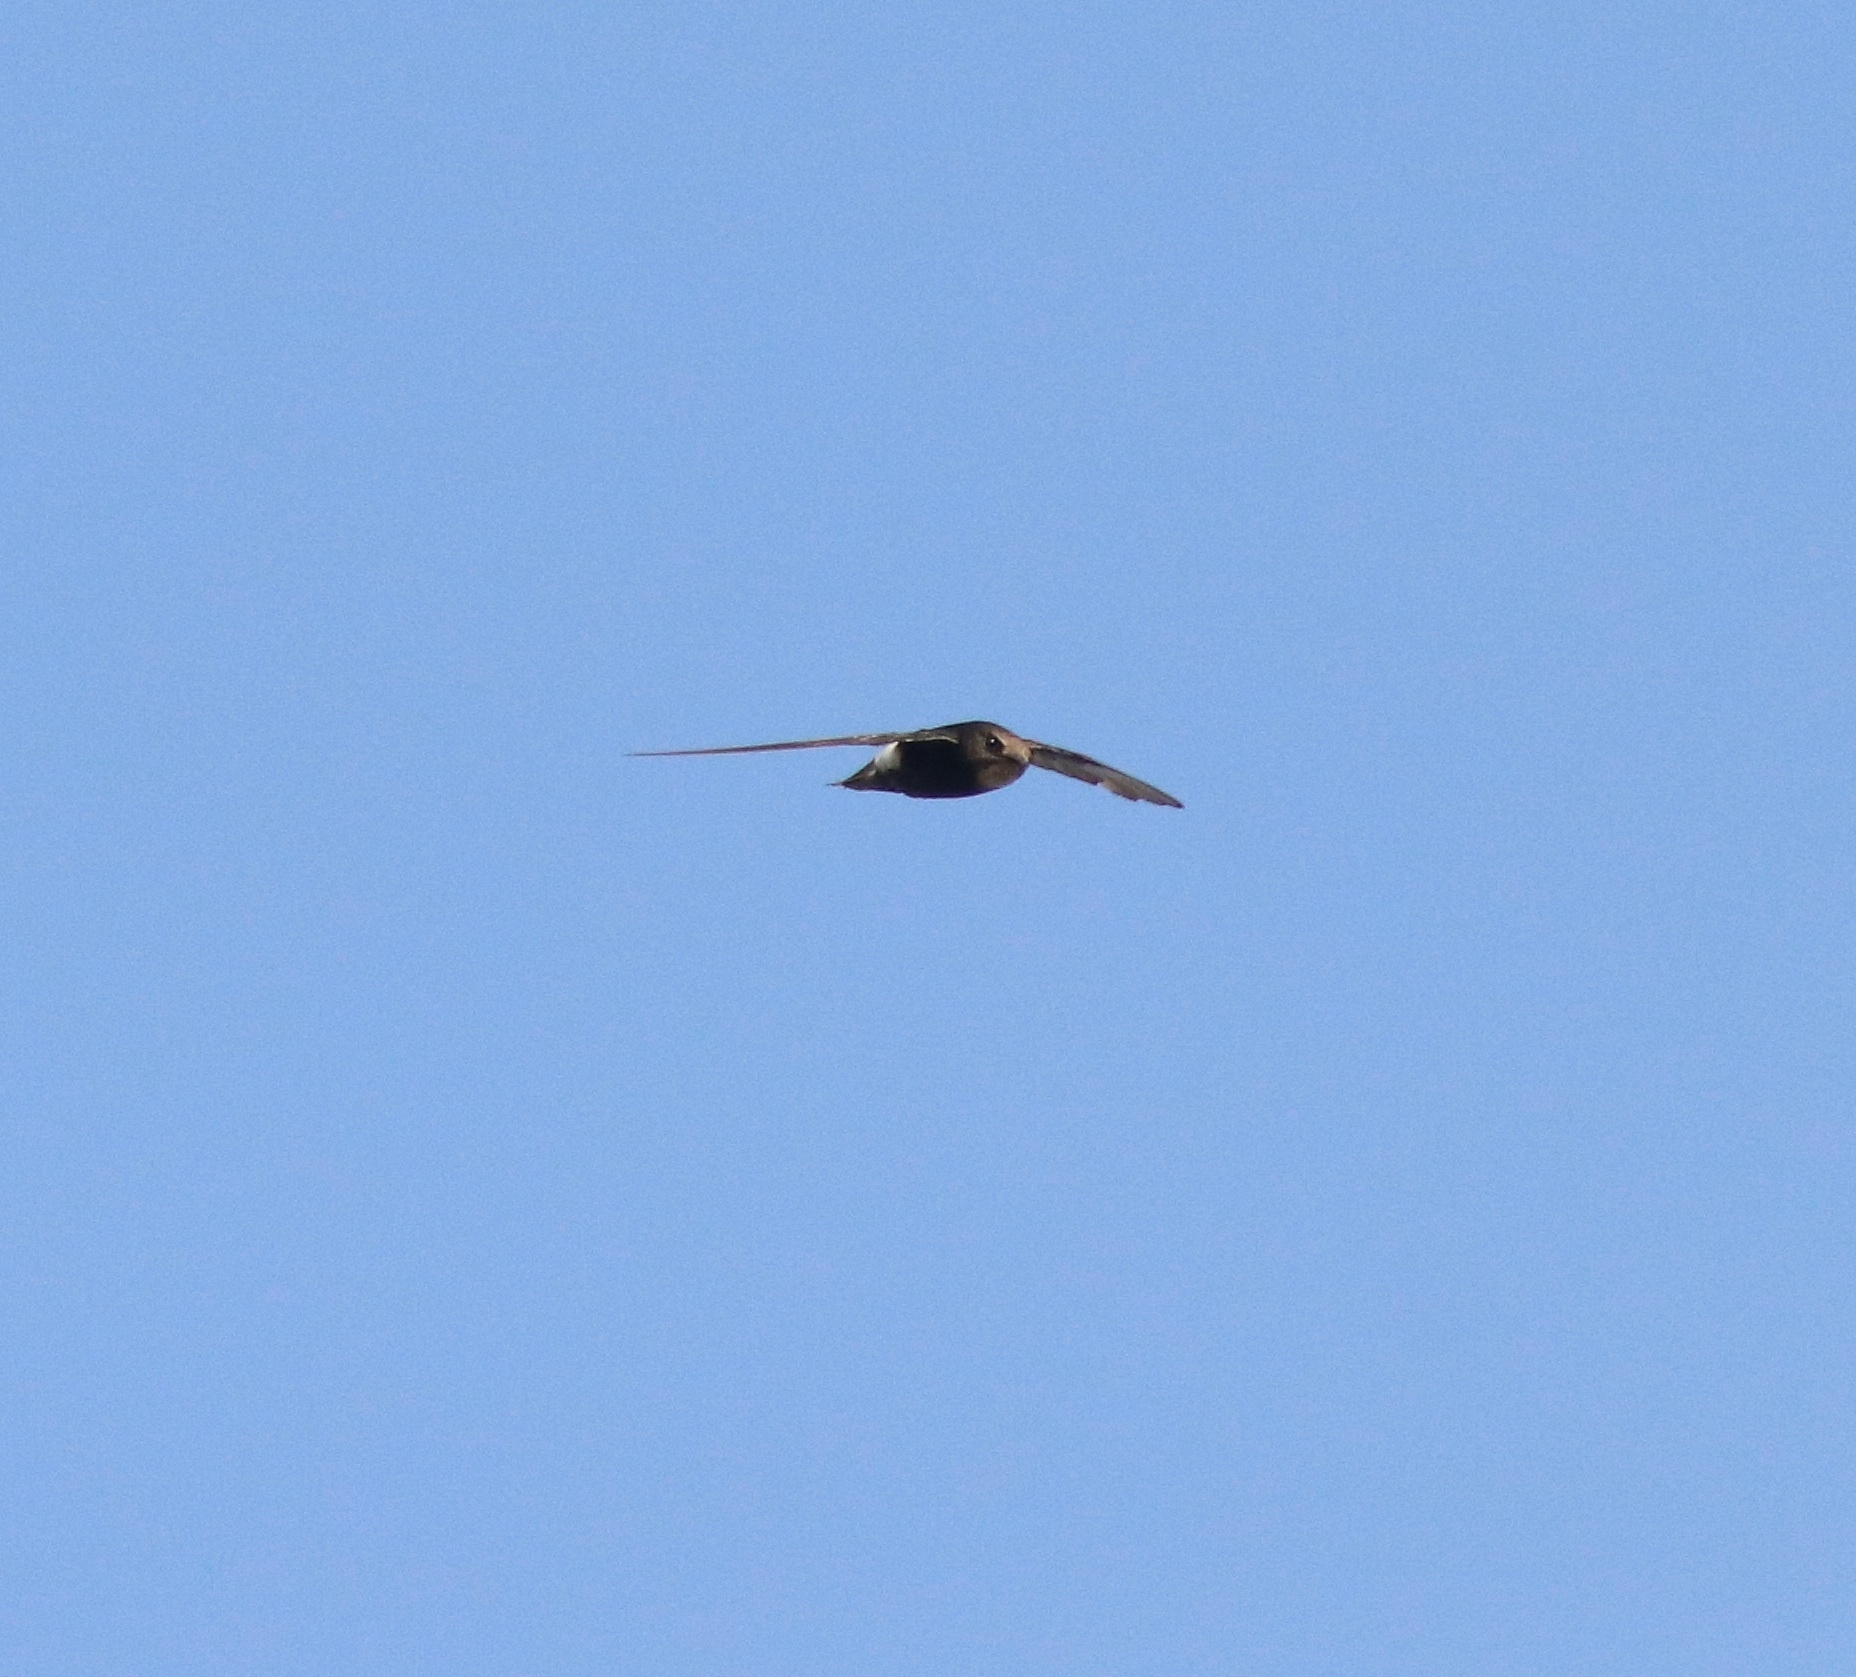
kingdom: Animalia
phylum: Chordata
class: Aves
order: Apodiformes
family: Apodidae
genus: Apus
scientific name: Apus affinis
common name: Little swift
